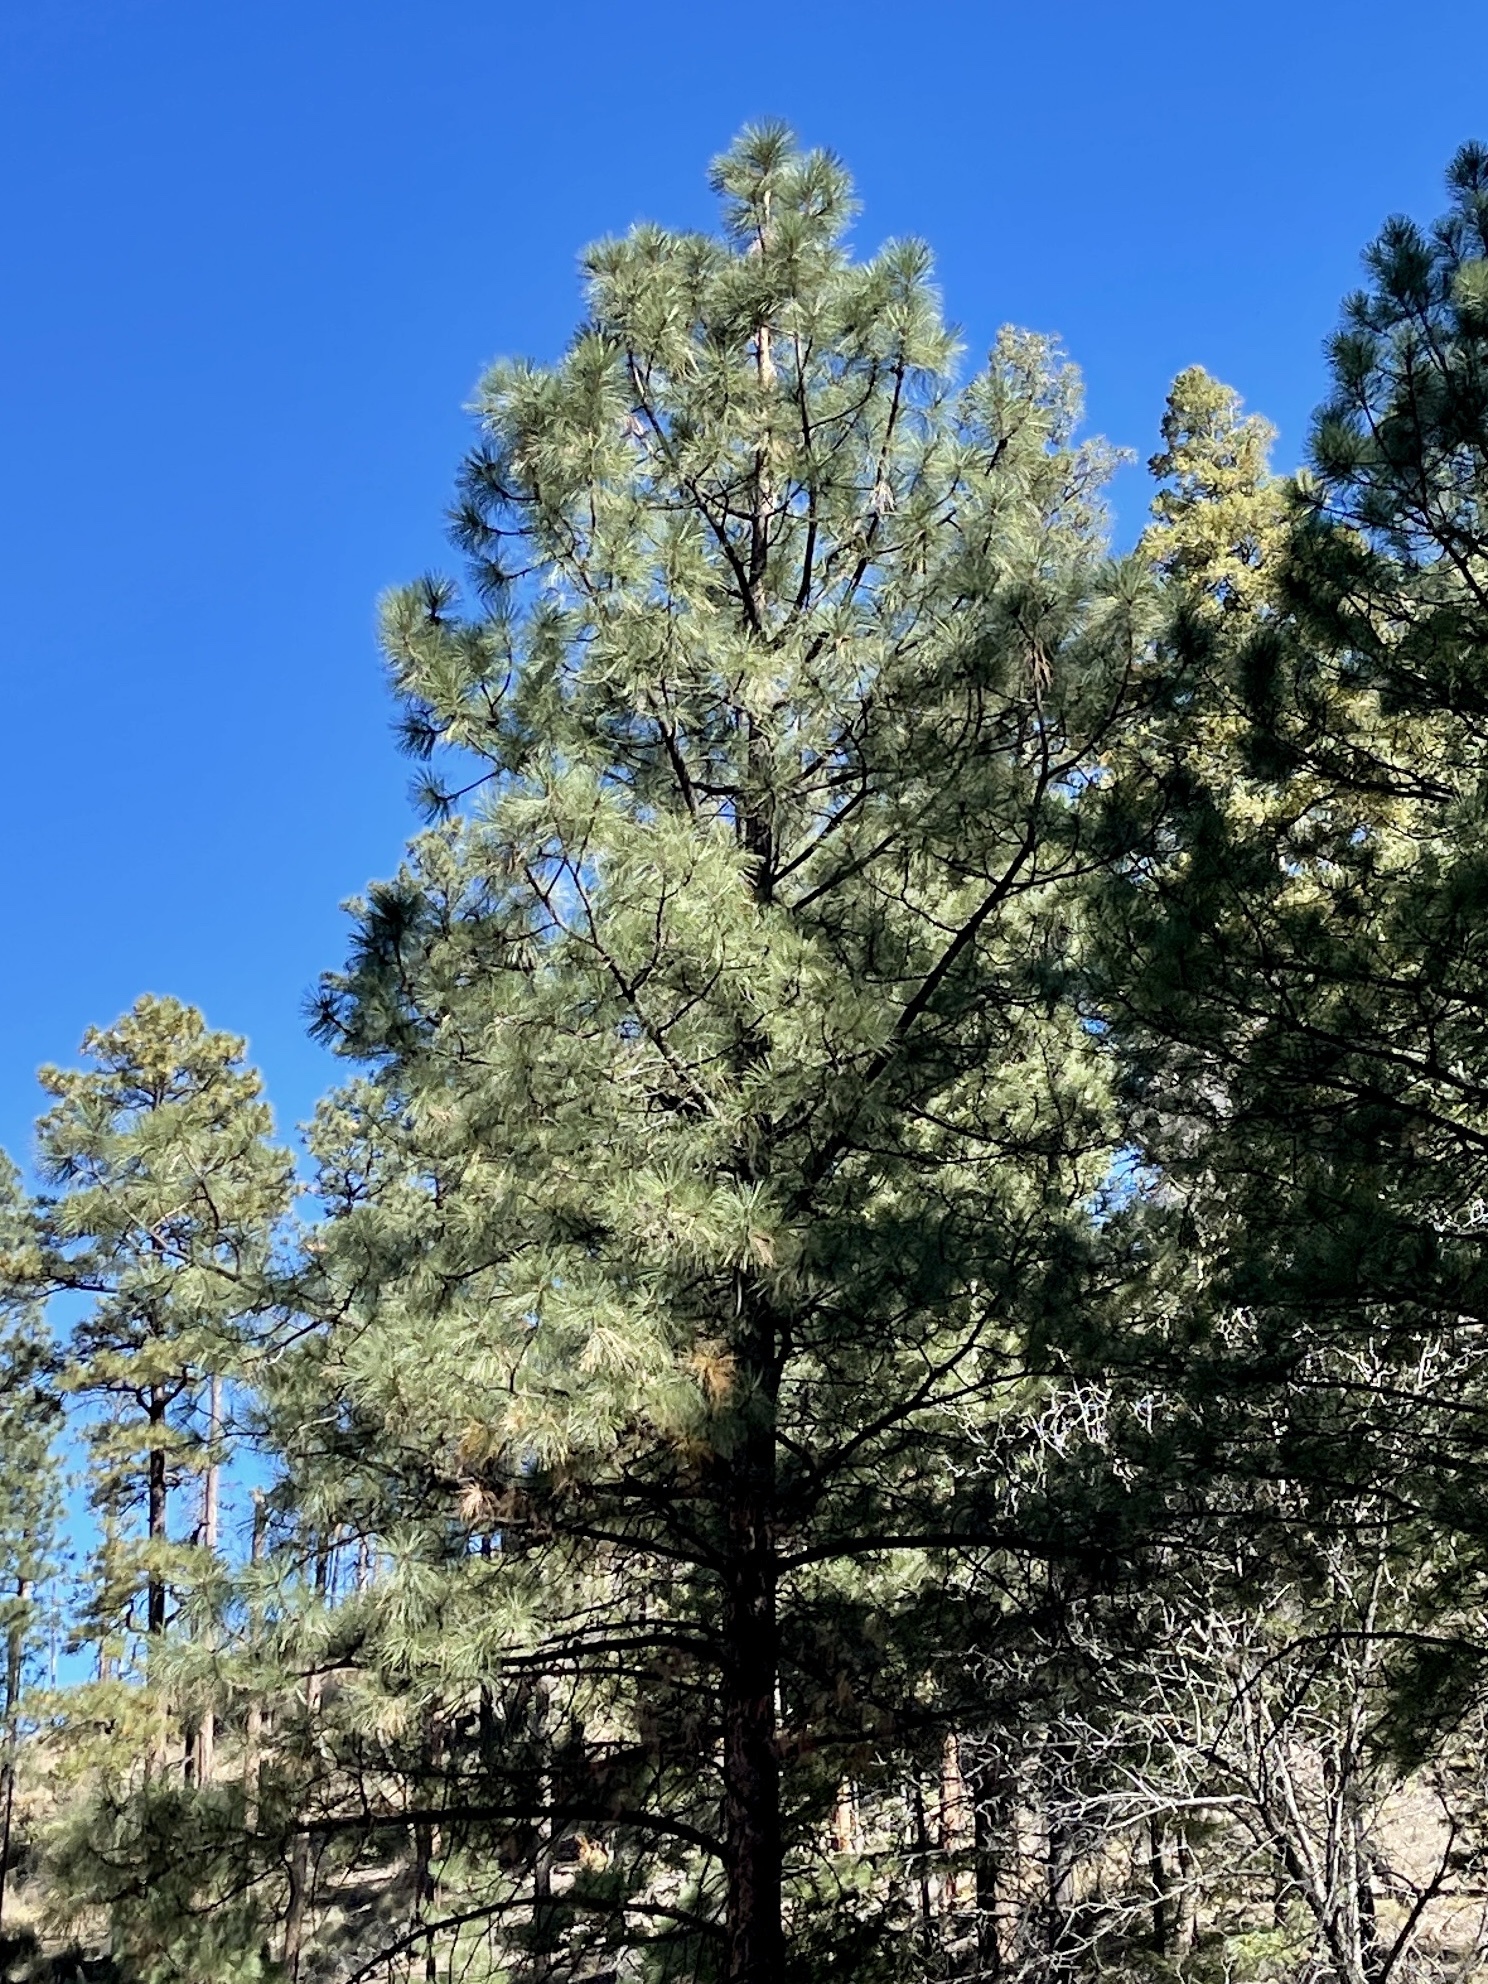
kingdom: Plantae
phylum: Tracheophyta
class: Pinopsida
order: Pinales
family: Pinaceae
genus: Pinus
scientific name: Pinus ponderosa
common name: Western yellow-pine
